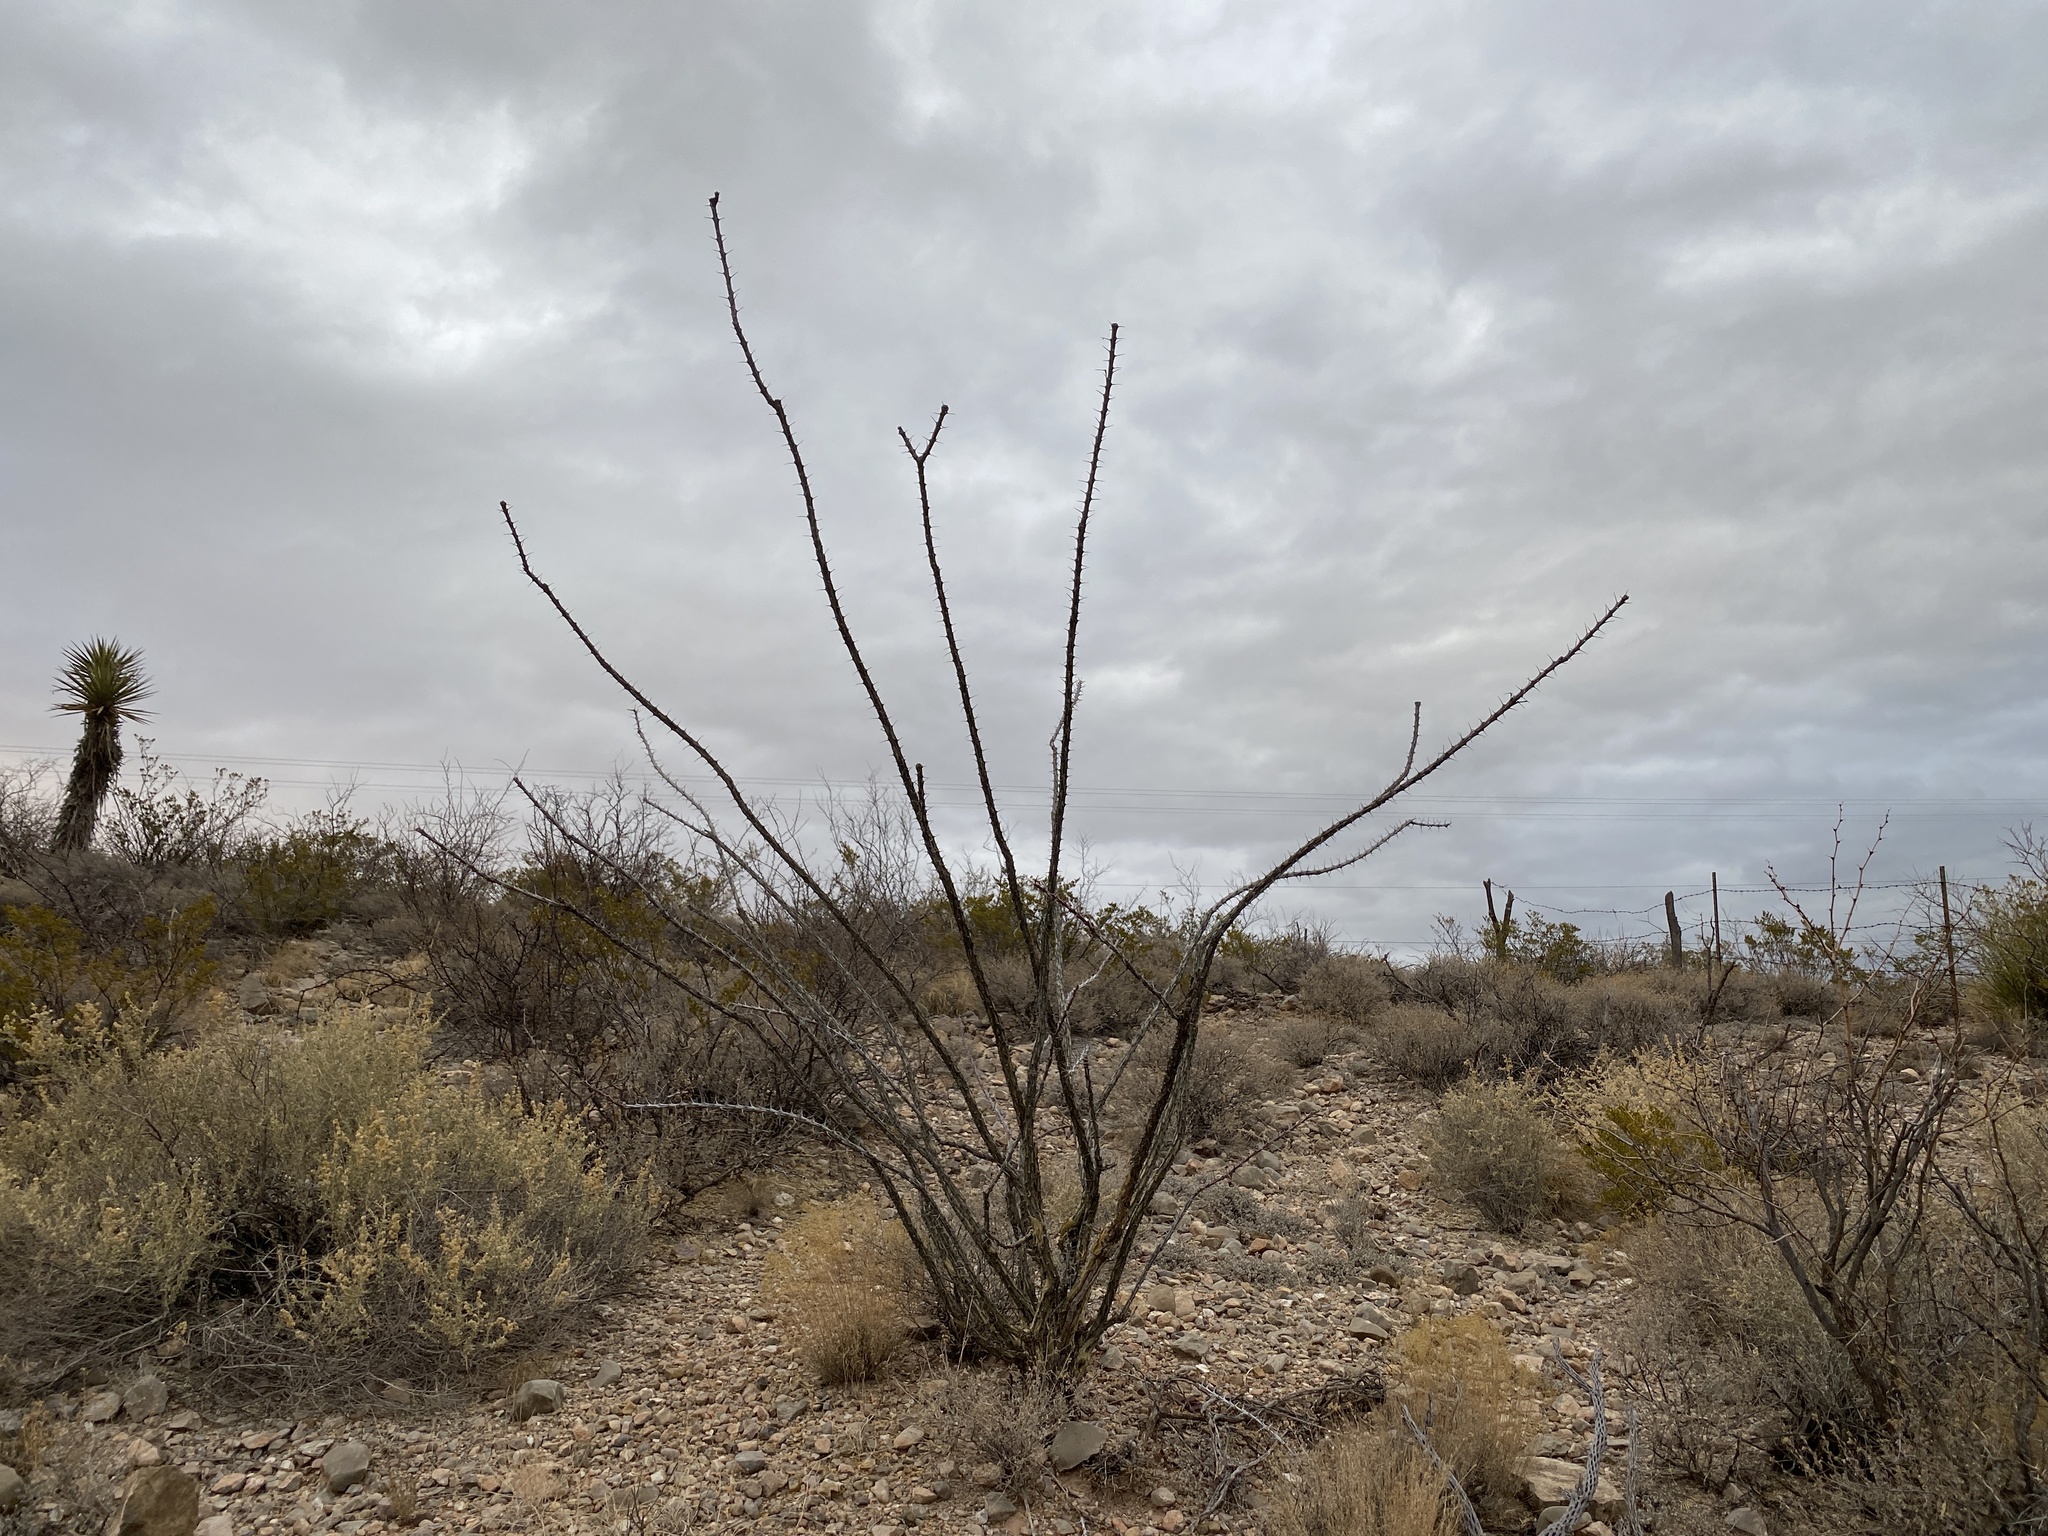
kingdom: Plantae
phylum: Tracheophyta
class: Magnoliopsida
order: Ericales
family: Fouquieriaceae
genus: Fouquieria
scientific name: Fouquieria splendens
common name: Vine-cactus
